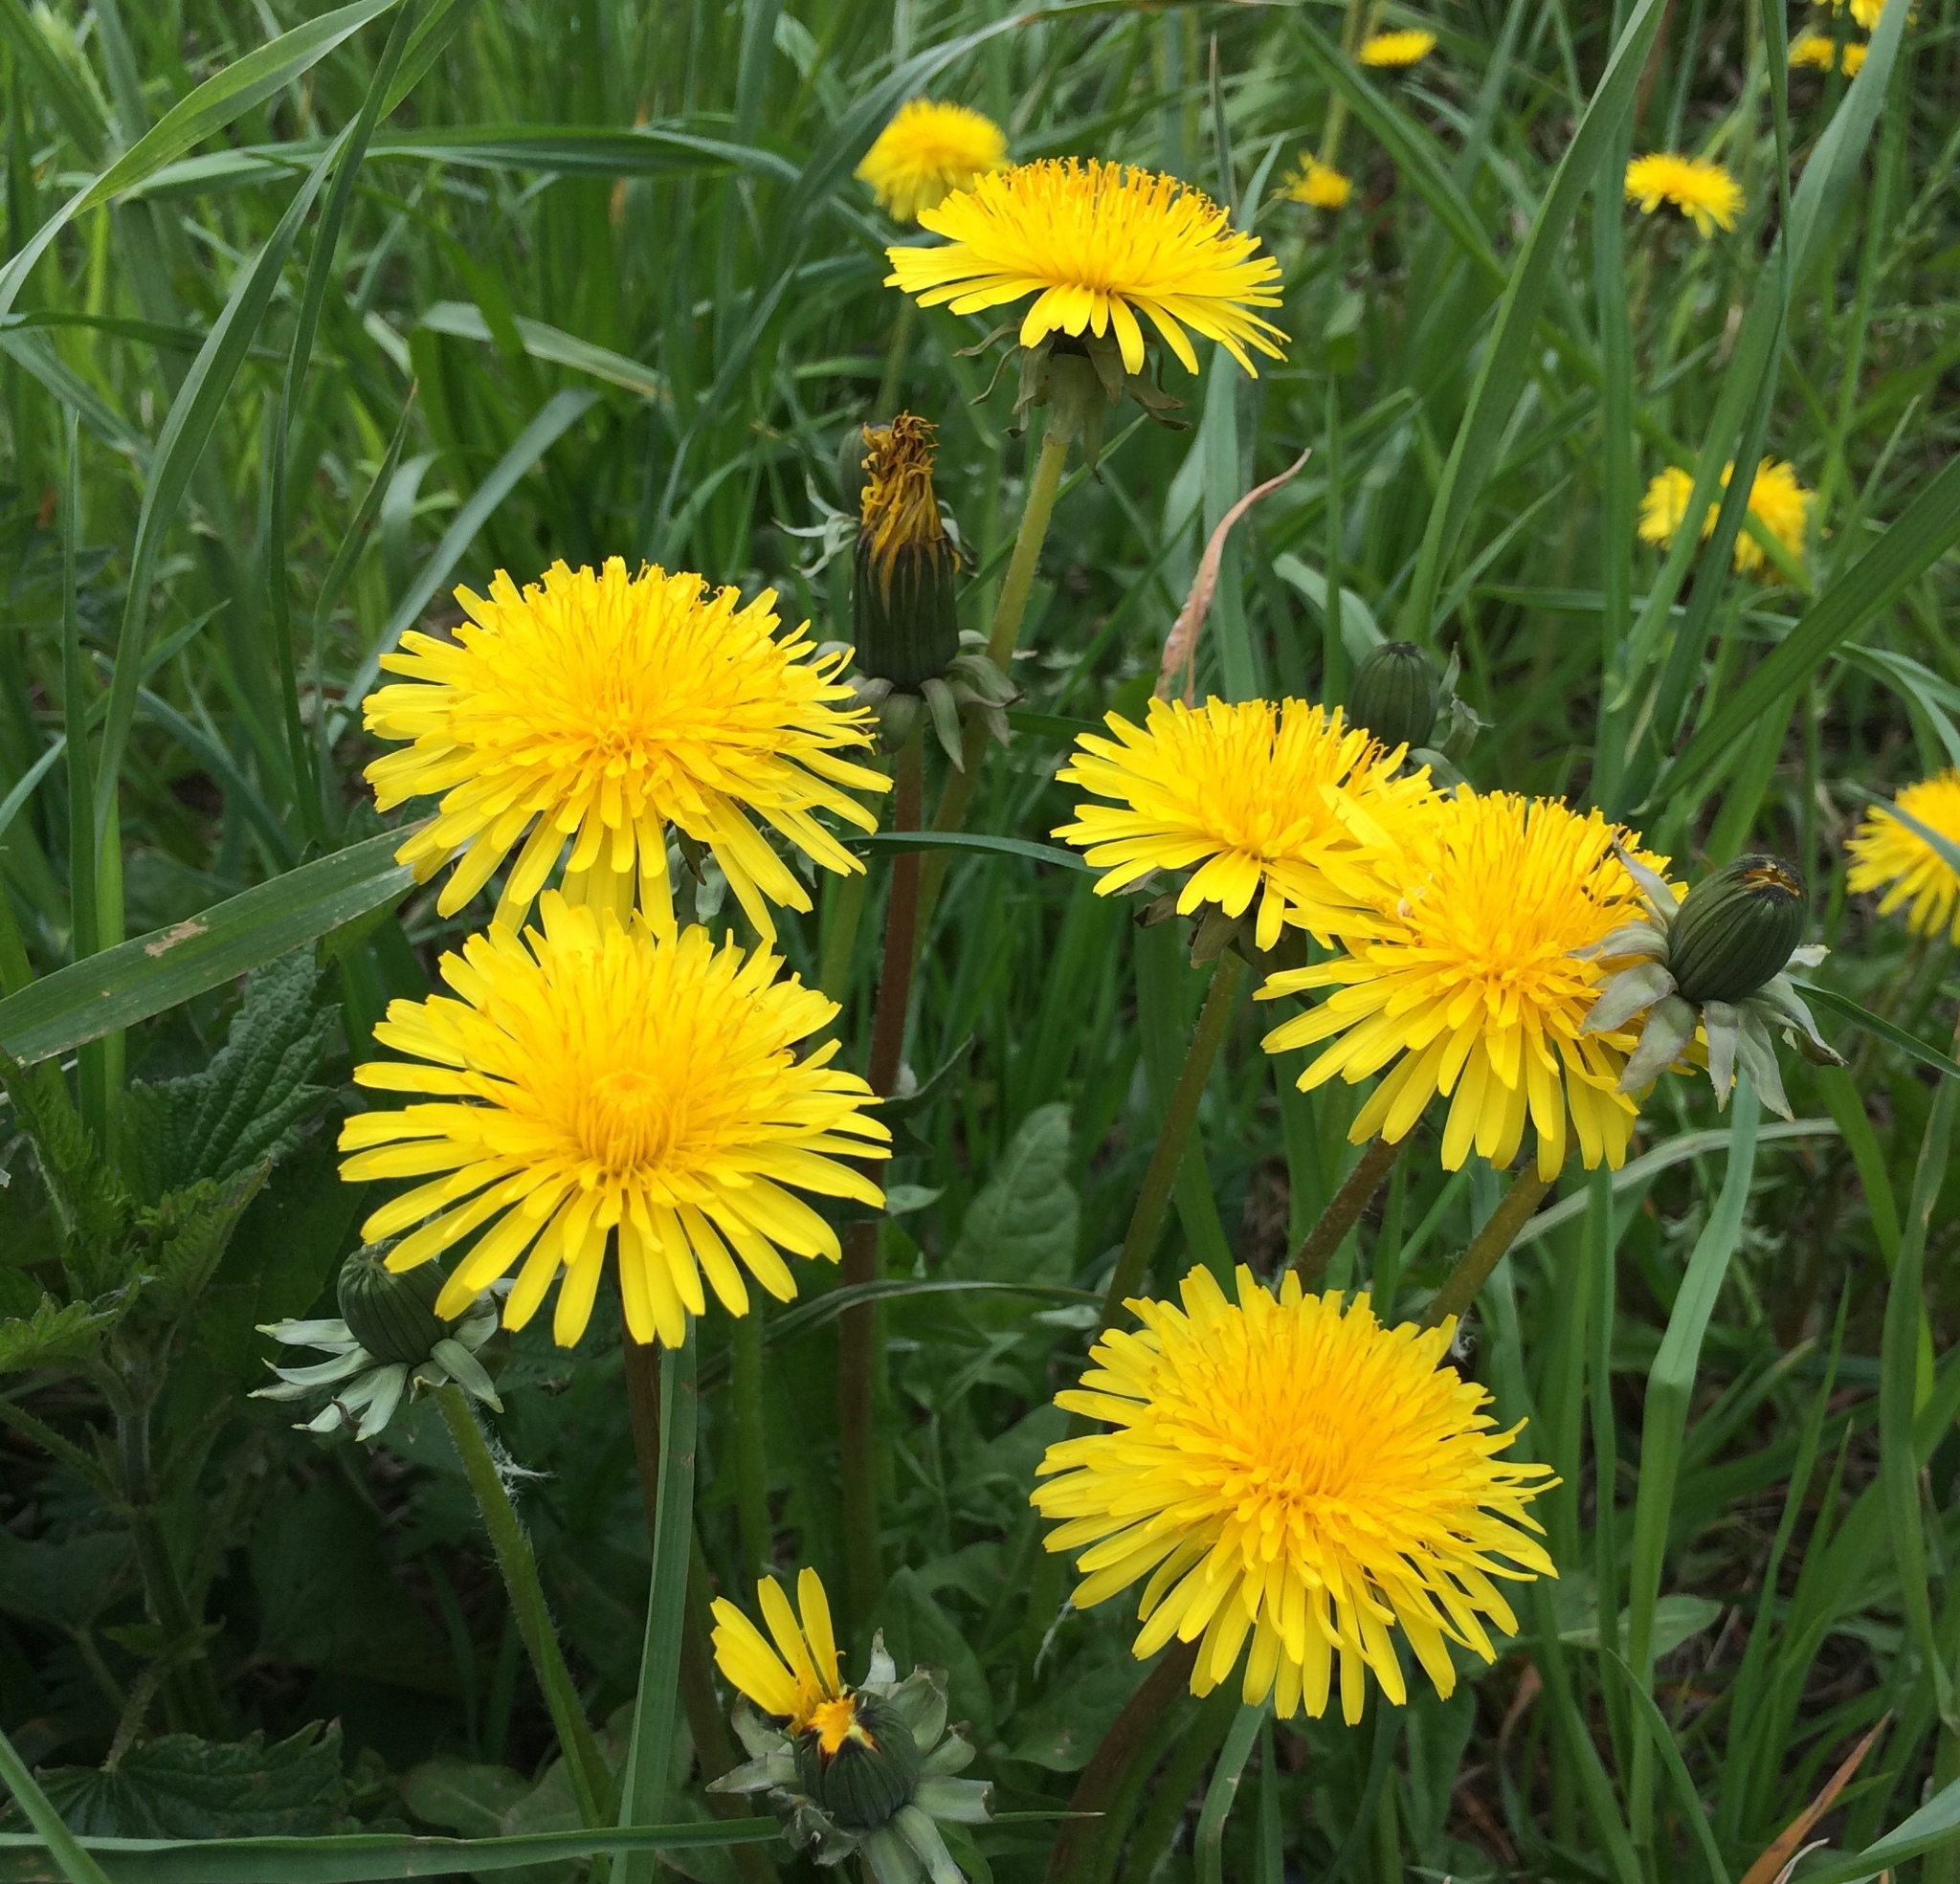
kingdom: Plantae
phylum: Tracheophyta
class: Magnoliopsida
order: Asterales
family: Asteraceae
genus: Taraxacum
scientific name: Taraxacum officinale
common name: Common dandelion
